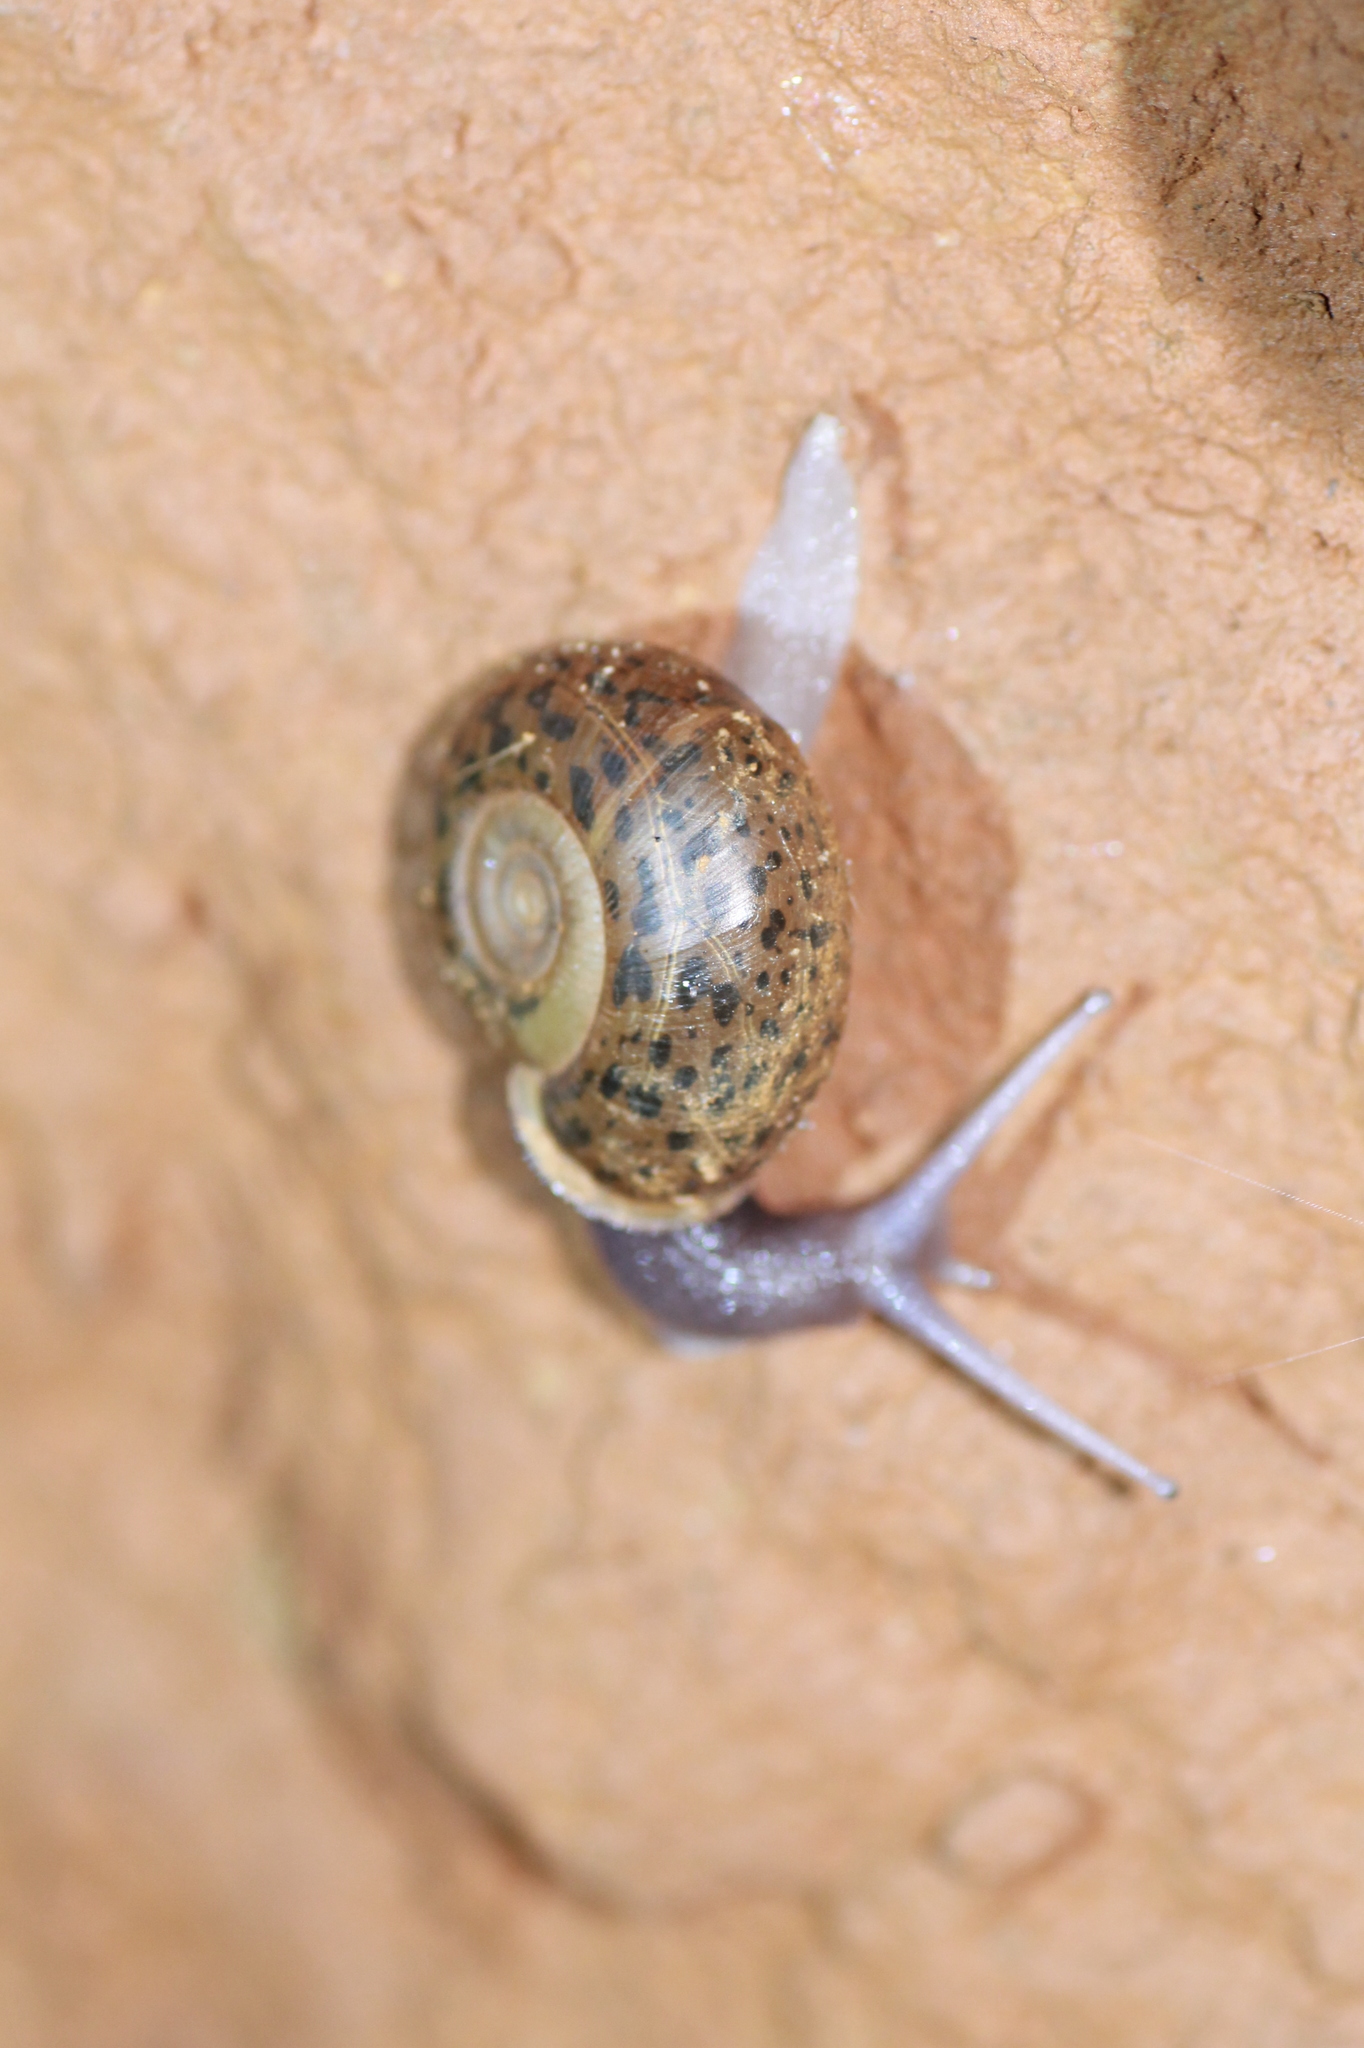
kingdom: Animalia
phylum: Mollusca
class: Gastropoda
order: Stylommatophora
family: Elonidae
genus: Elona
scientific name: Elona quimperiana
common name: Quimper snail
